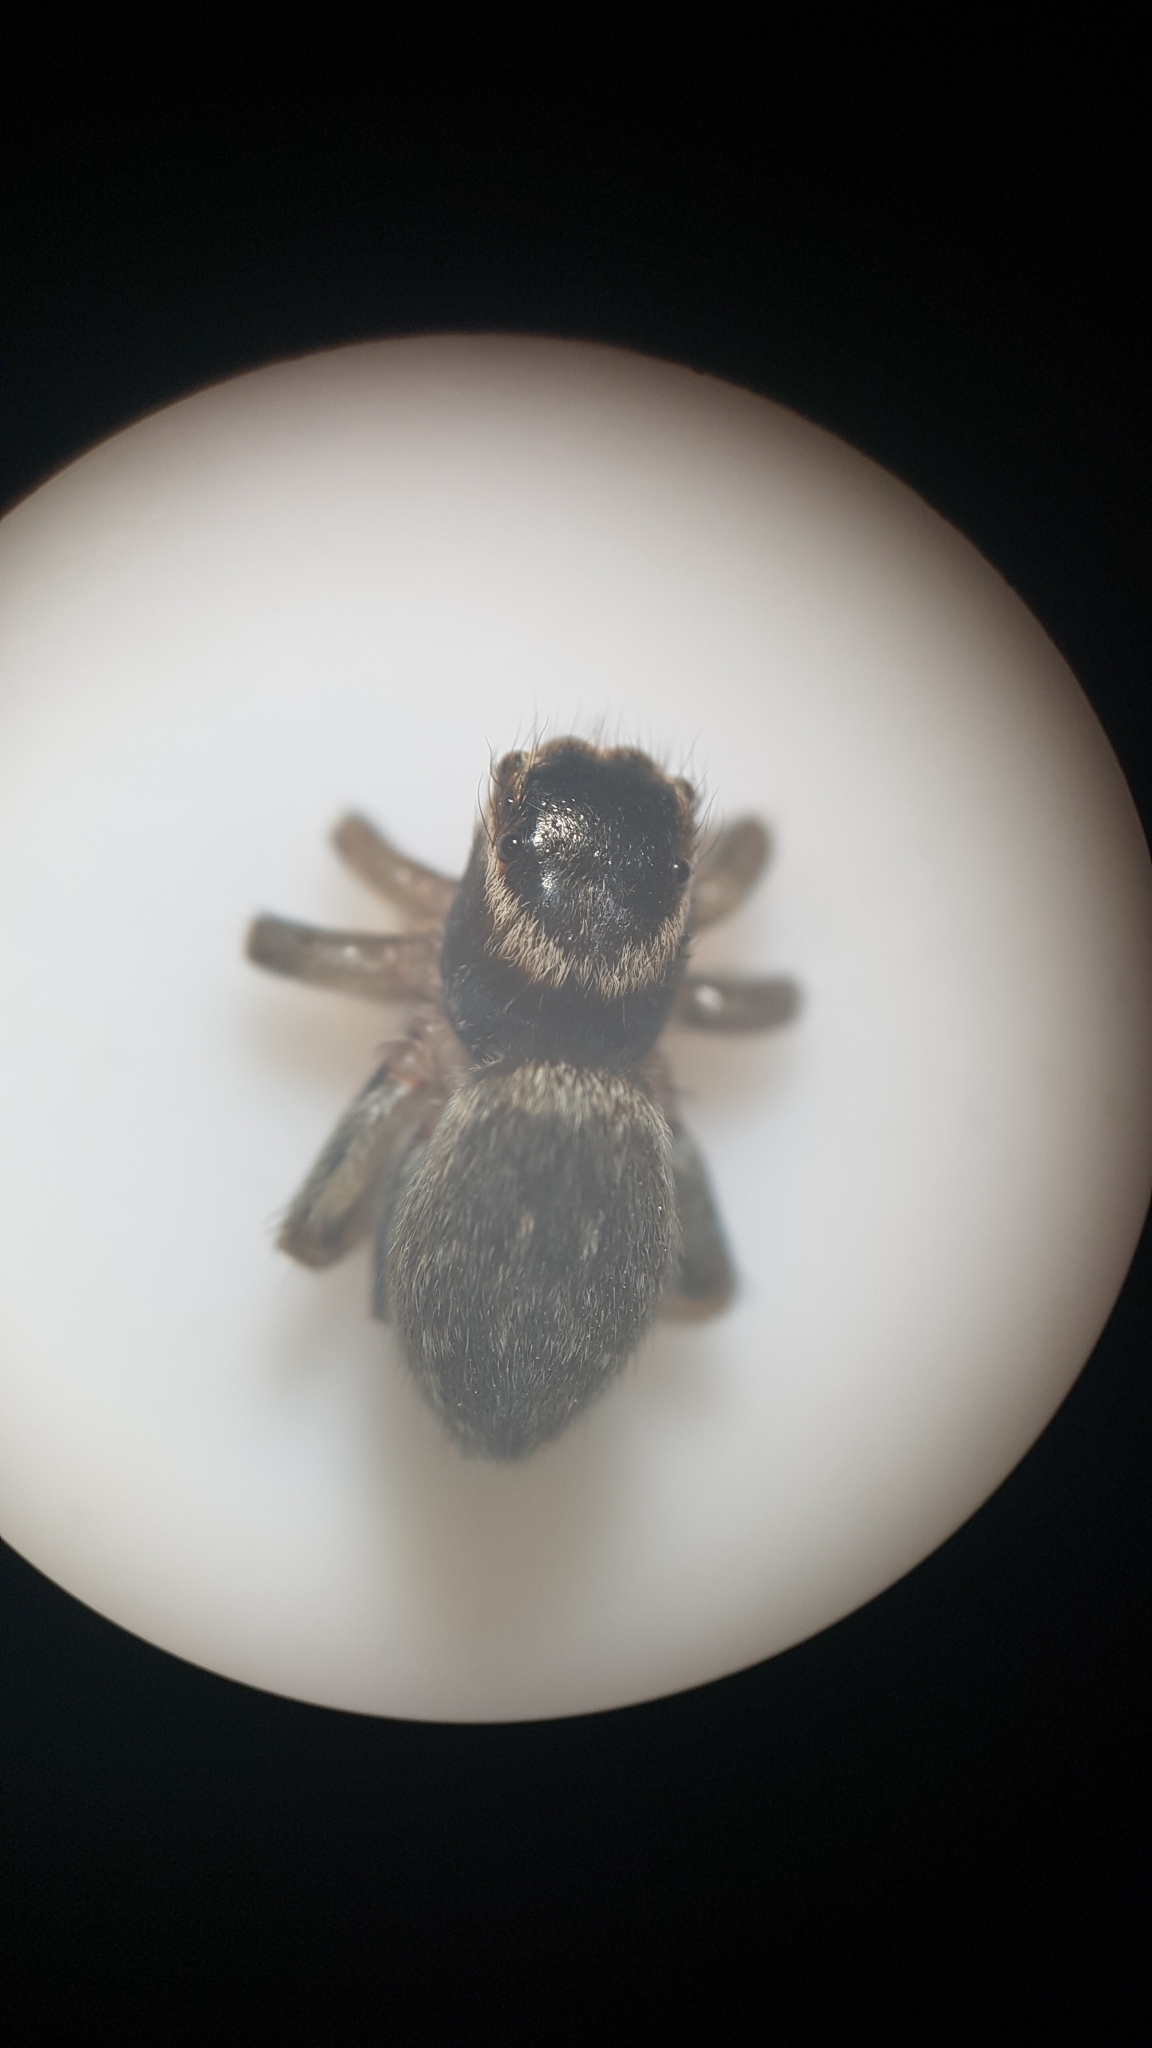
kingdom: Animalia
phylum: Arthropoda
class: Arachnida
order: Araneae
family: Salticidae
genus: Maratus
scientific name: Maratus griseus
